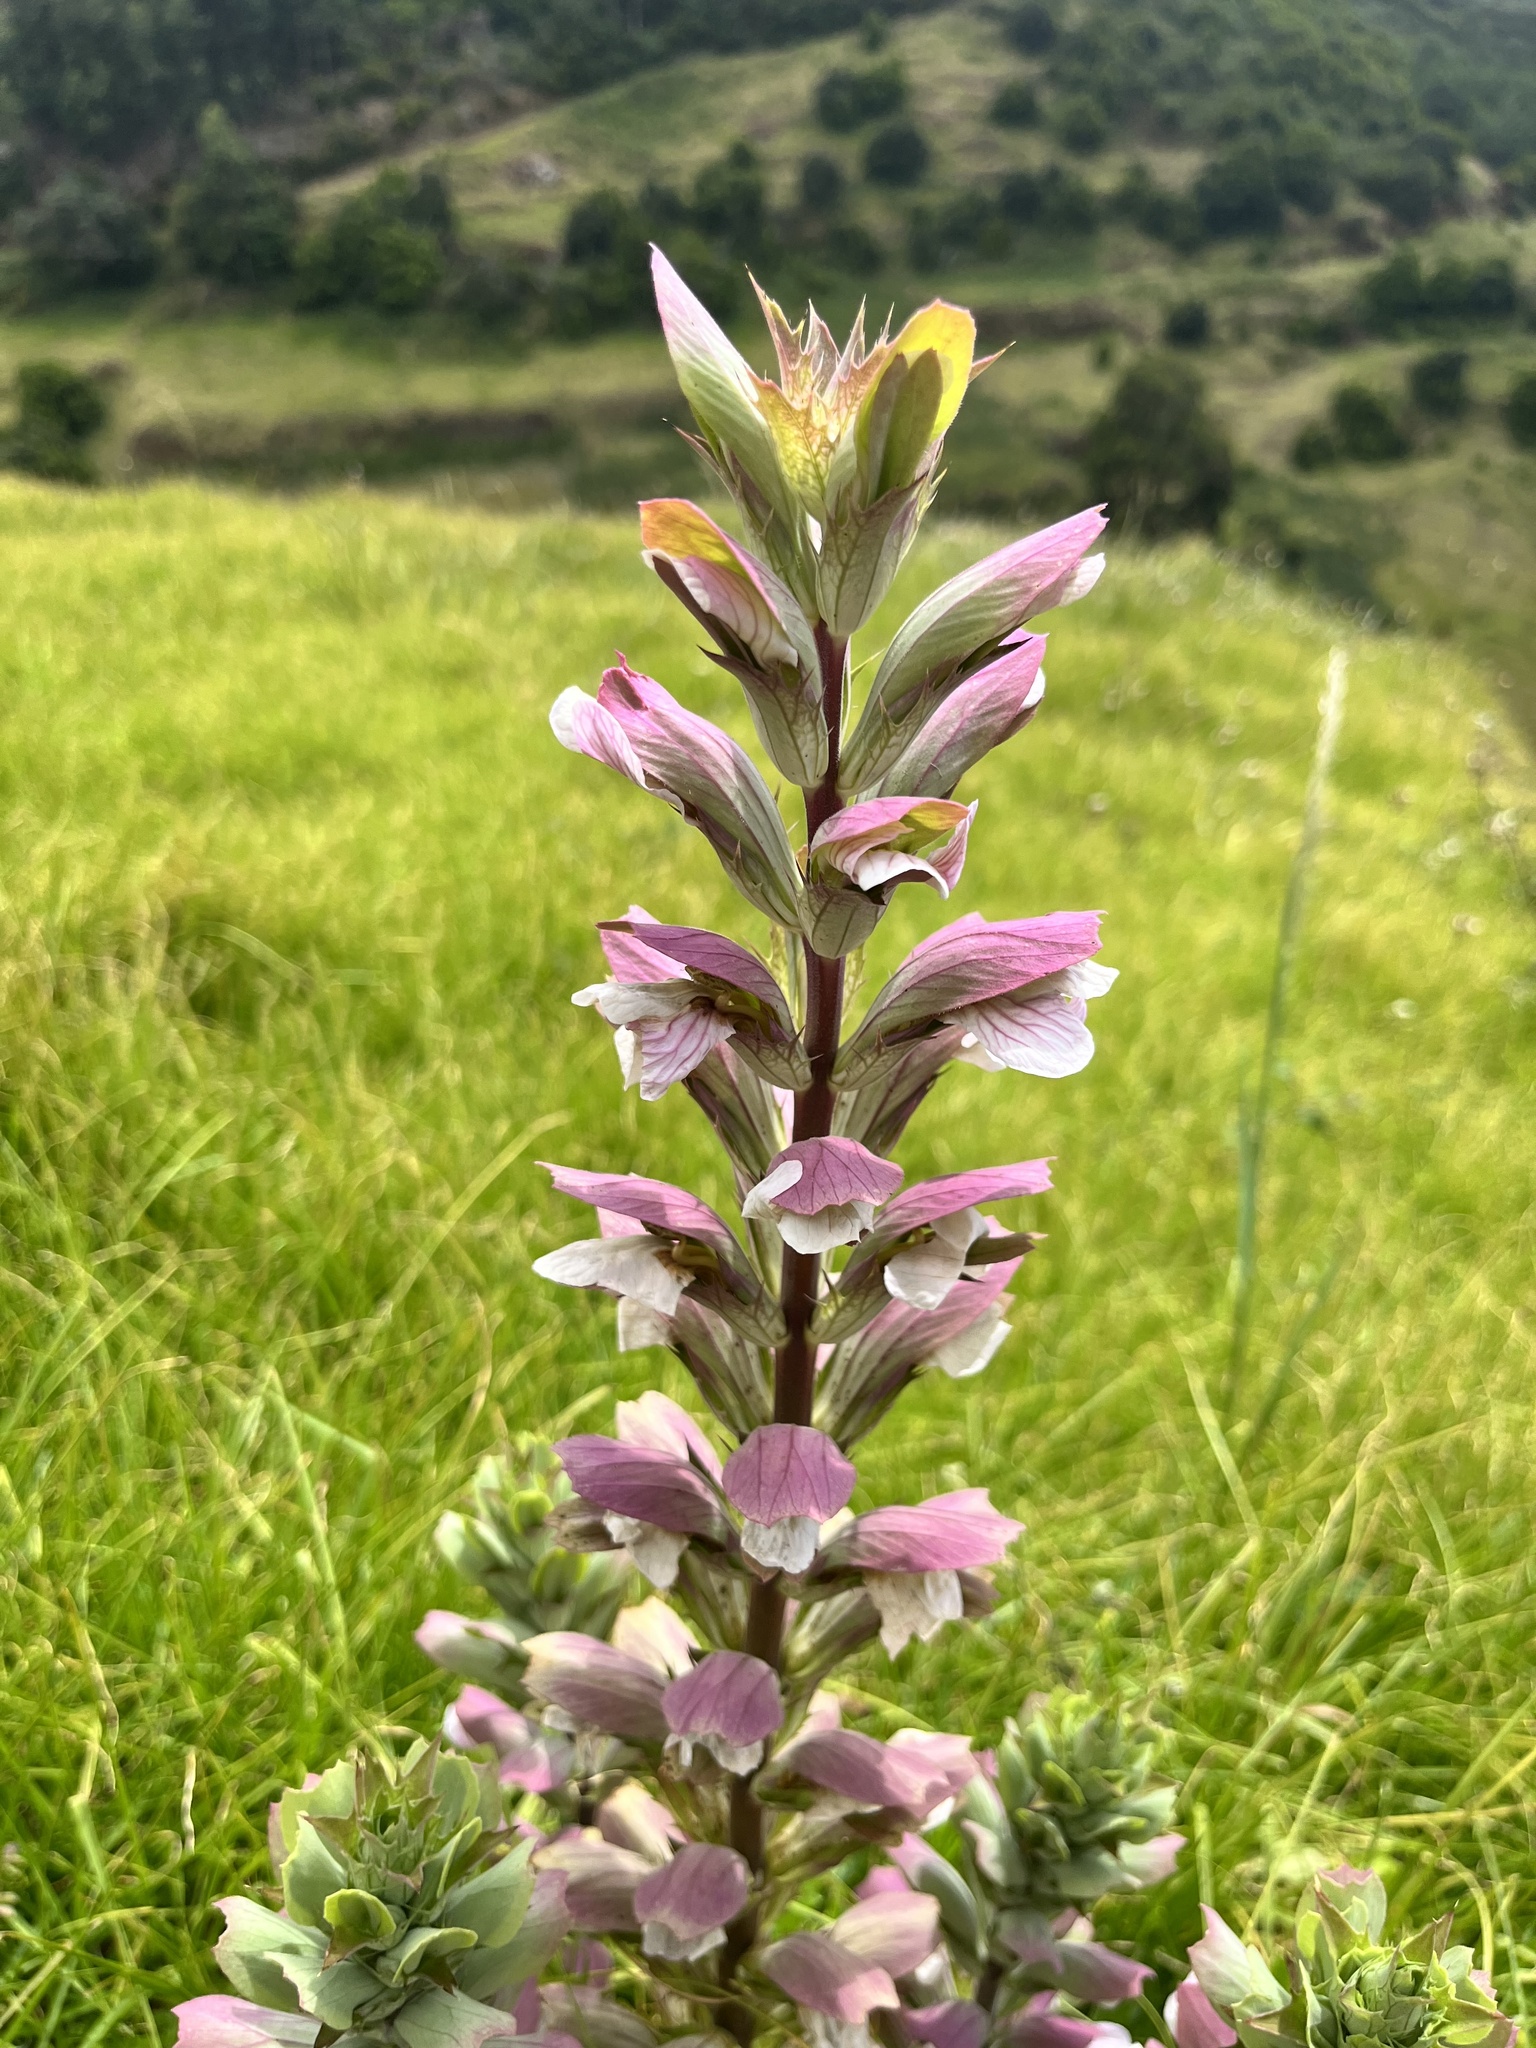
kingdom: Plantae
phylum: Tracheophyta
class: Magnoliopsida
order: Lamiales
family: Acanthaceae
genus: Acanthus
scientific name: Acanthus mollis
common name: Bear's-breech
